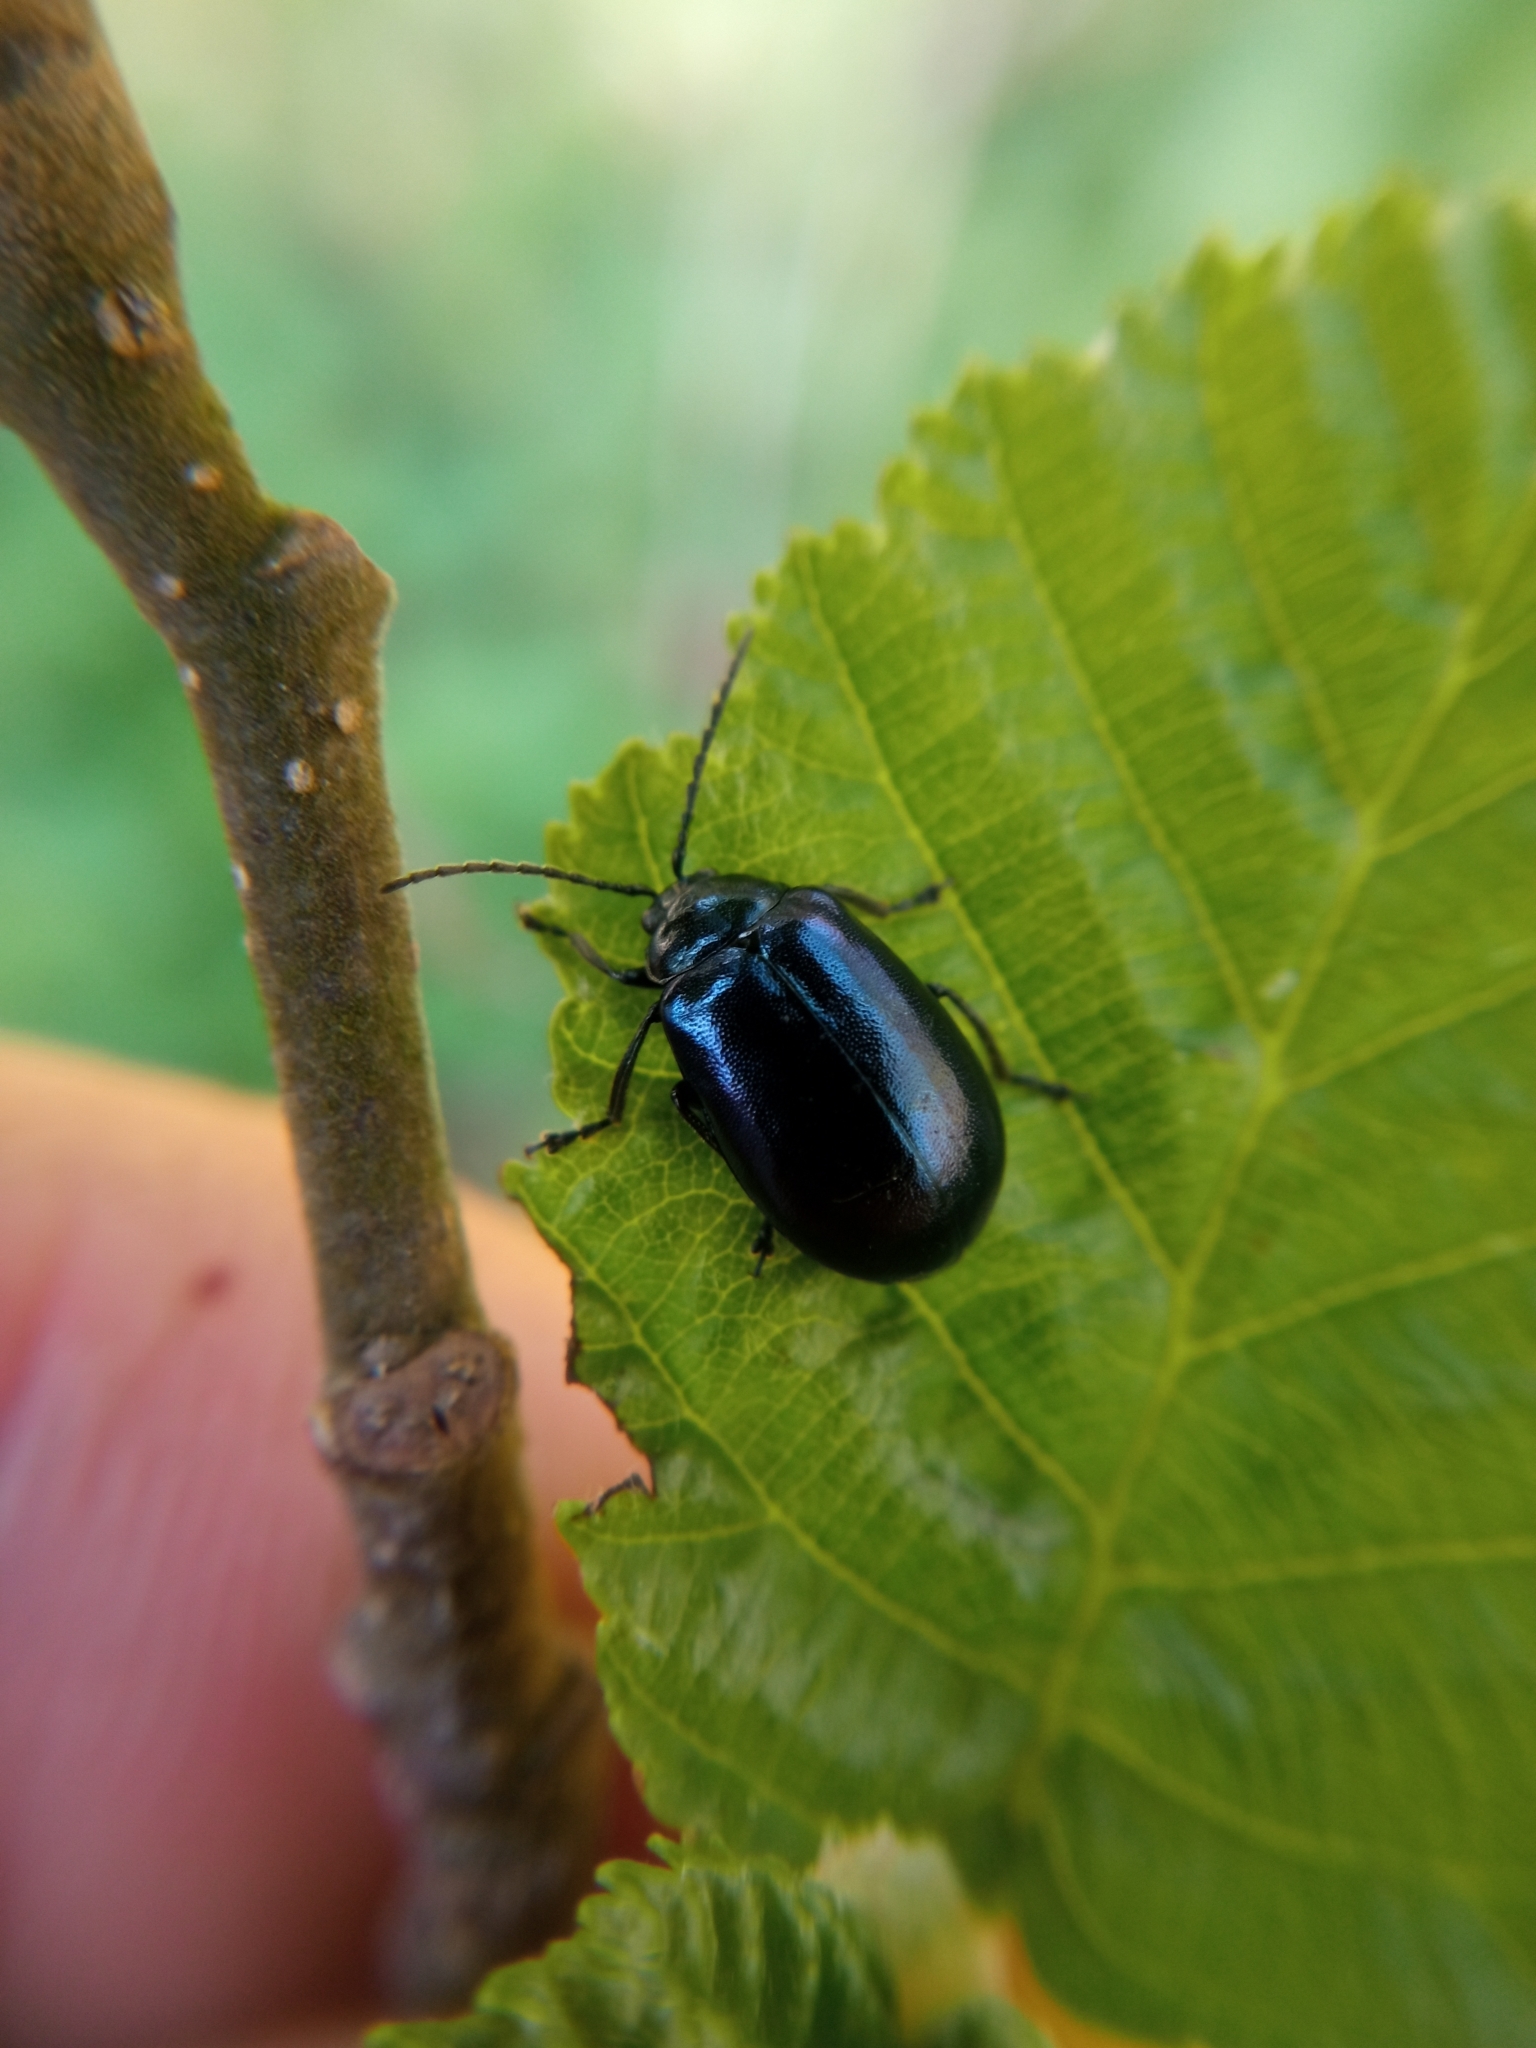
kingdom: Animalia
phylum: Arthropoda
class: Insecta
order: Coleoptera
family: Chrysomelidae
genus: Agelastica
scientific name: Agelastica alni
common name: Alder leaf beetle
